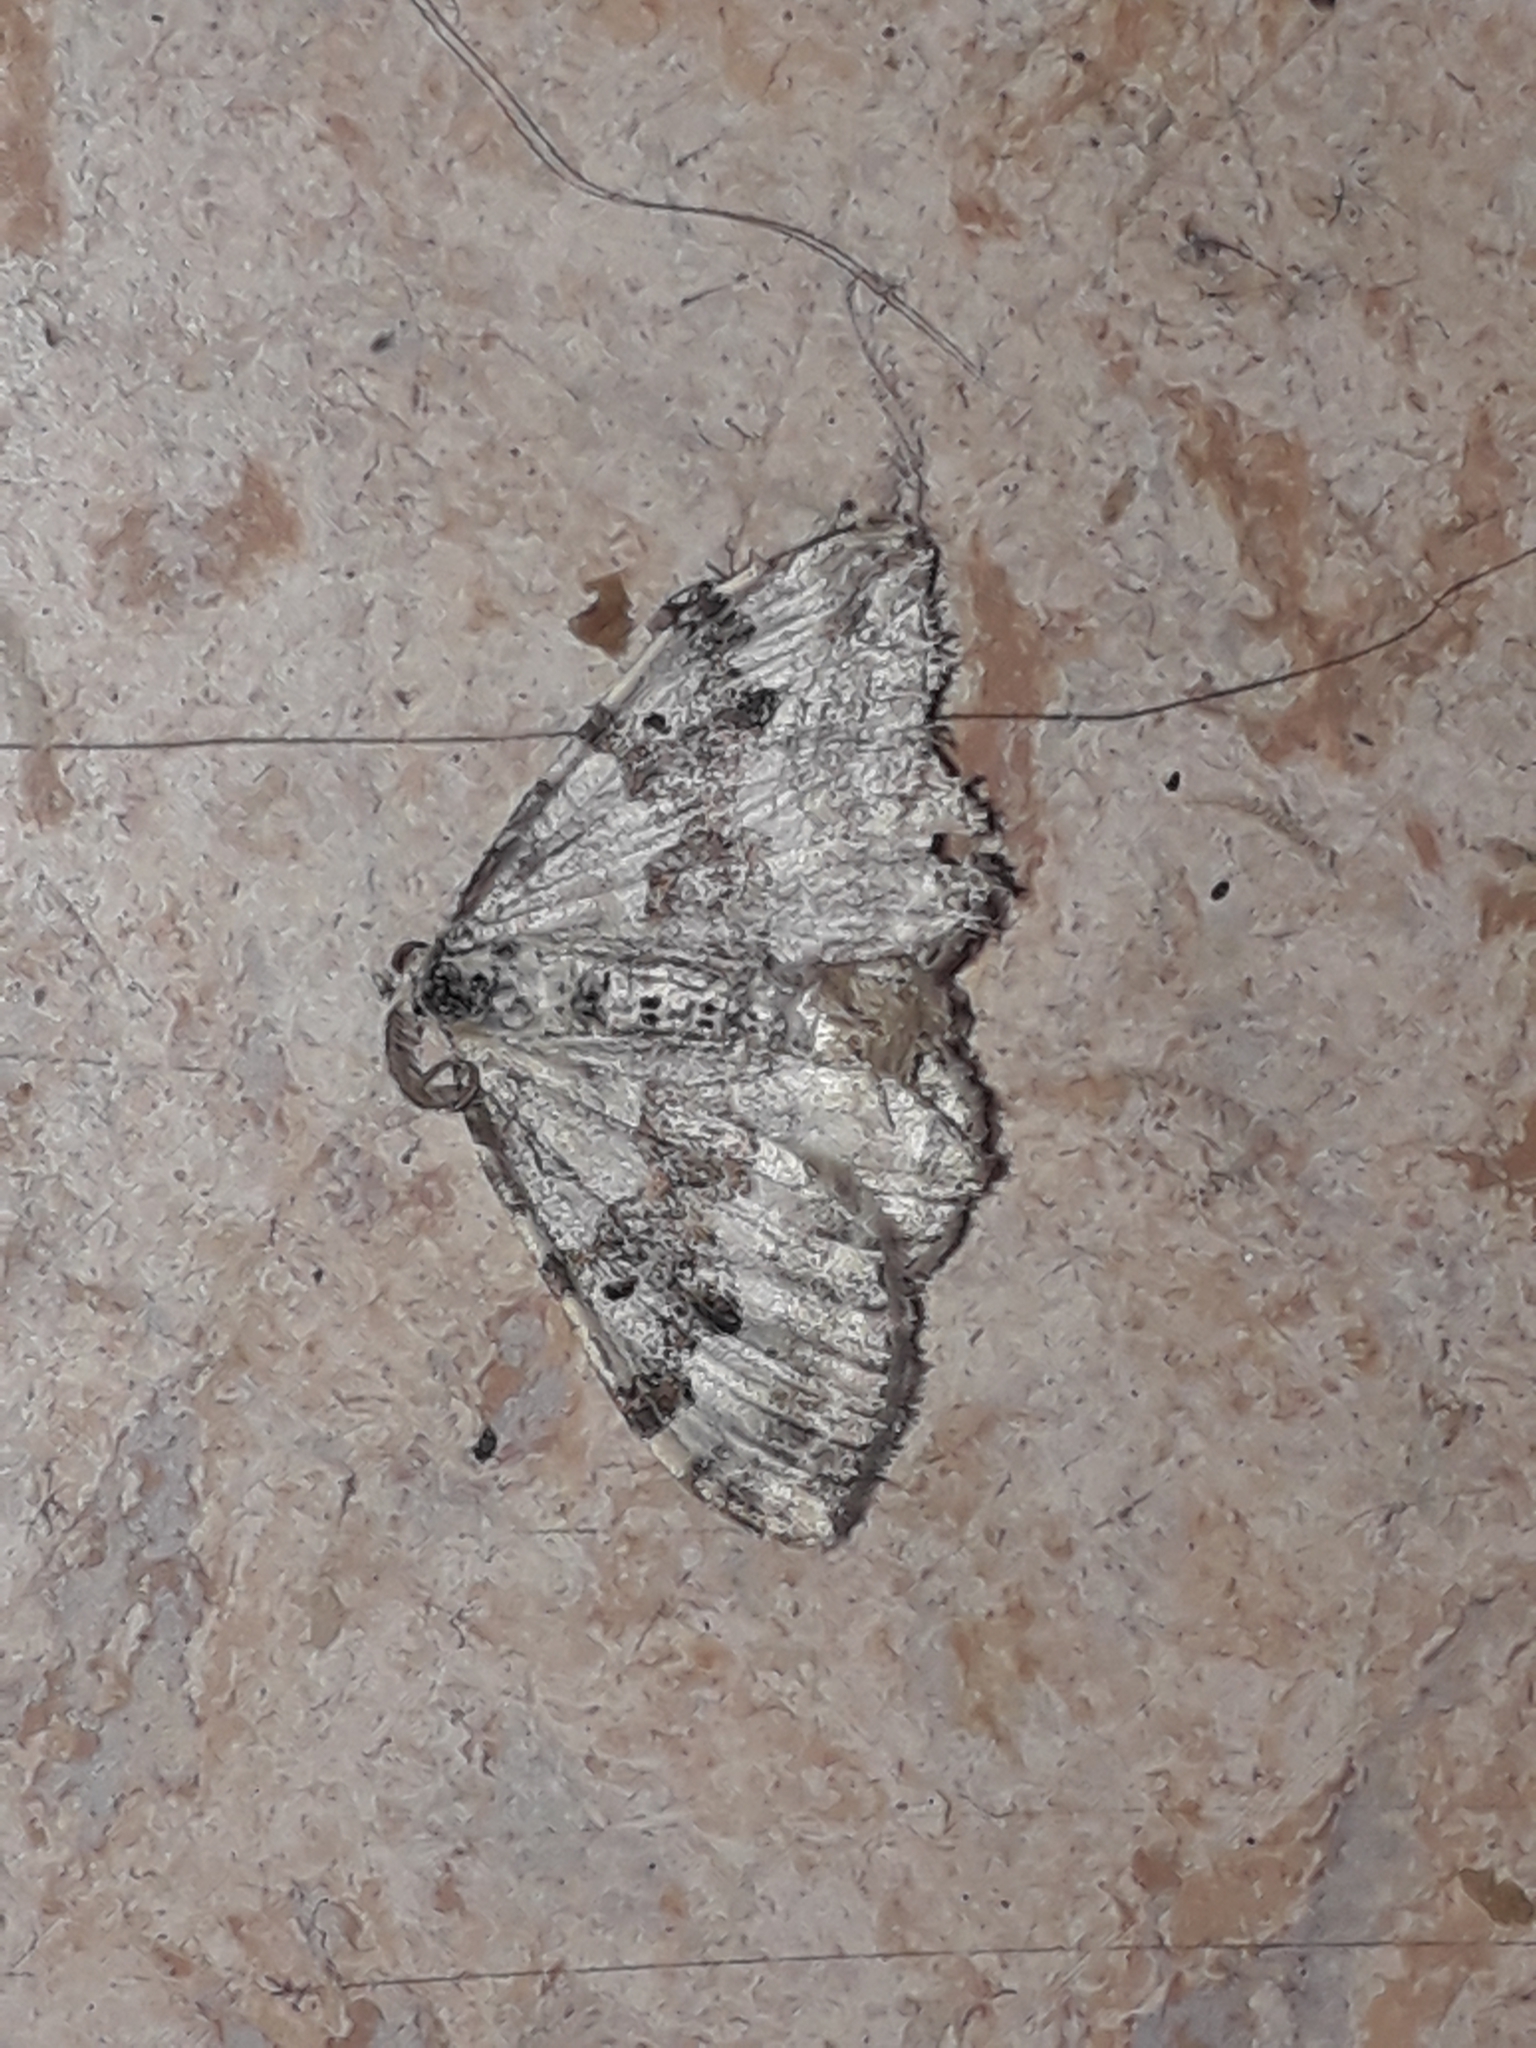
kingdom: Animalia
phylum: Arthropoda
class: Insecta
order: Lepidoptera
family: Geometridae
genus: Xanthorhoe
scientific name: Xanthorhoe montanata
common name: Silver-ground carpet
